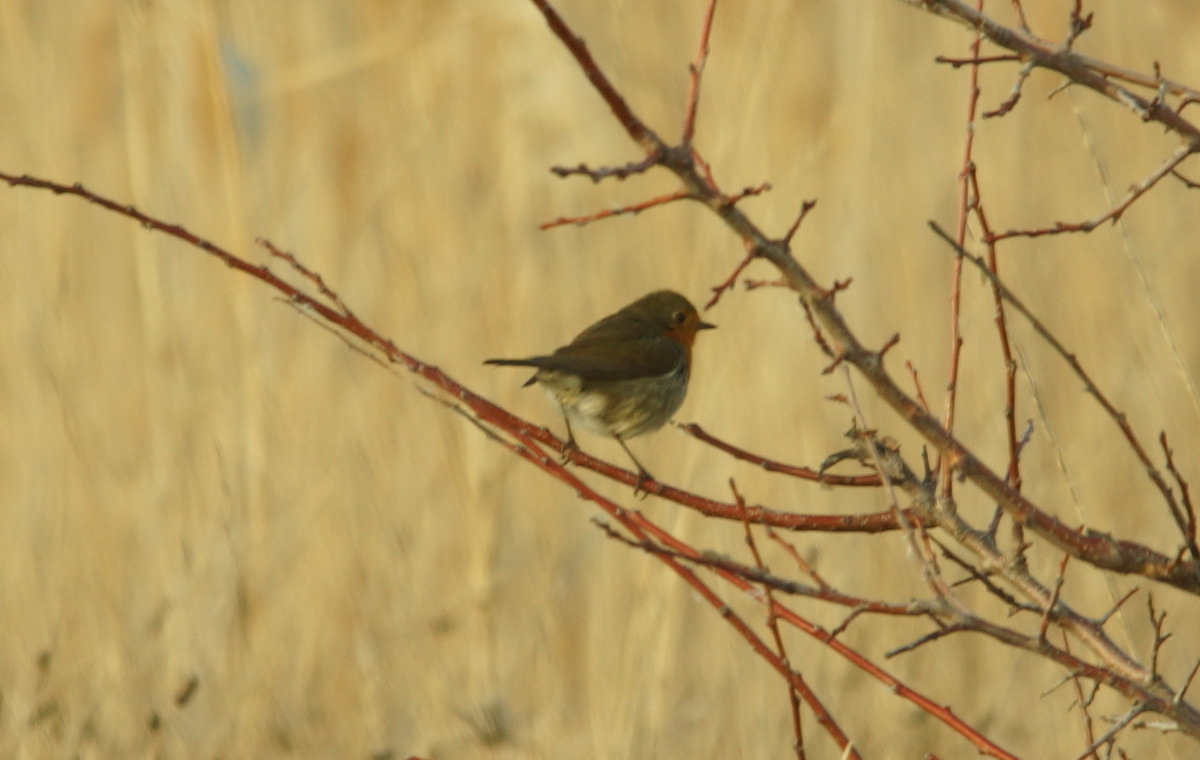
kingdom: Animalia
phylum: Chordata
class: Aves
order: Passeriformes
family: Muscicapidae
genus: Erithacus
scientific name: Erithacus rubecula
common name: European robin
